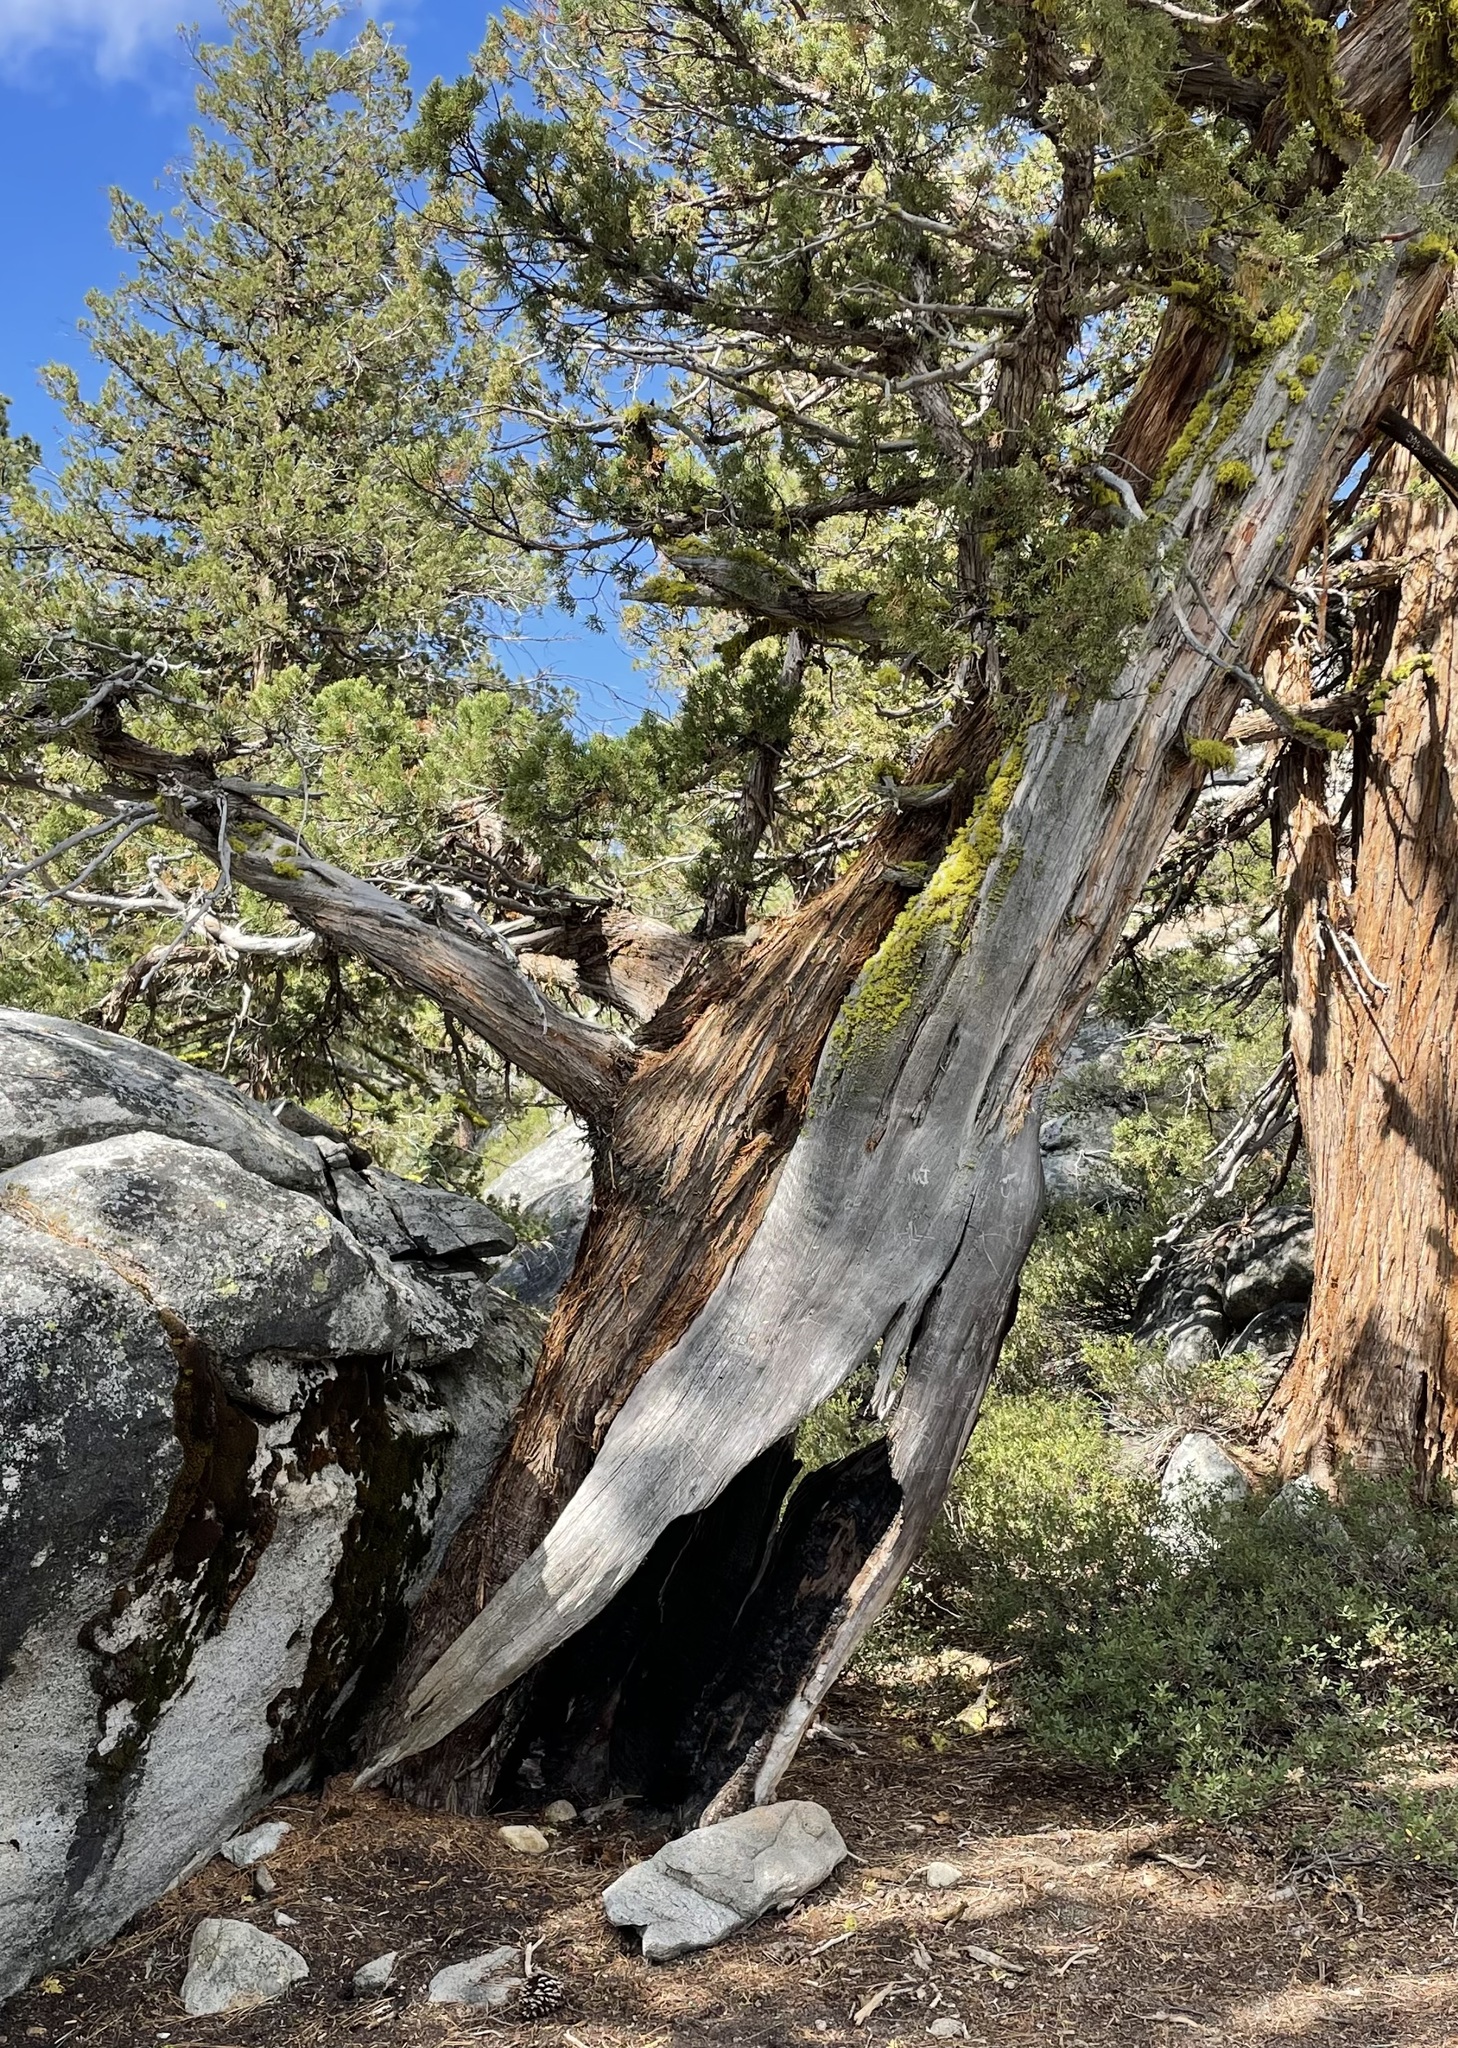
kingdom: Plantae
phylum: Tracheophyta
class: Pinopsida
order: Pinales
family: Cupressaceae
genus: Juniperus
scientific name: Juniperus occidentalis
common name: Western juniper
